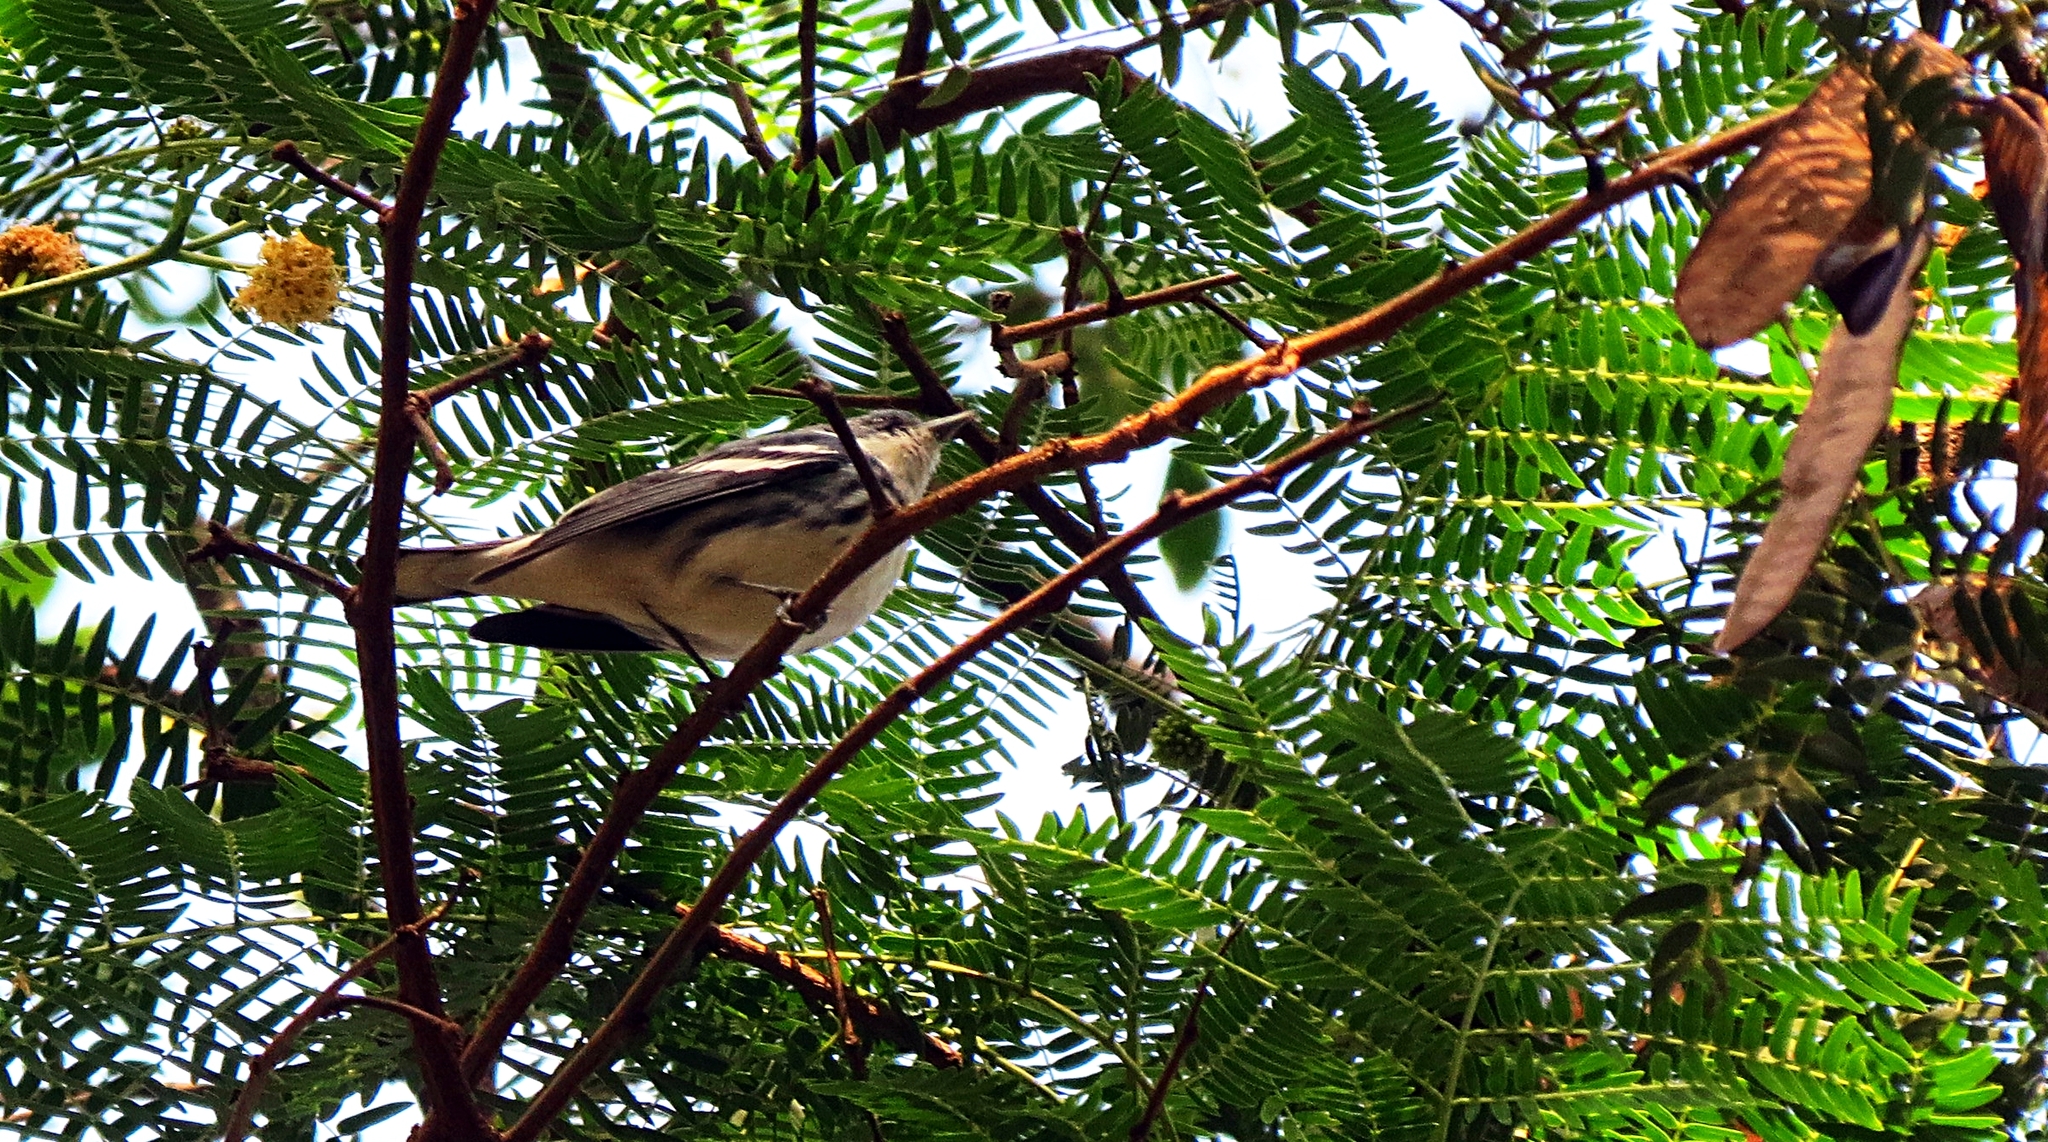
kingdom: Animalia
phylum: Chordata
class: Aves
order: Passeriformes
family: Parulidae
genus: Setophaga
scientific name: Setophaga cerulea
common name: Cerulean warbler
